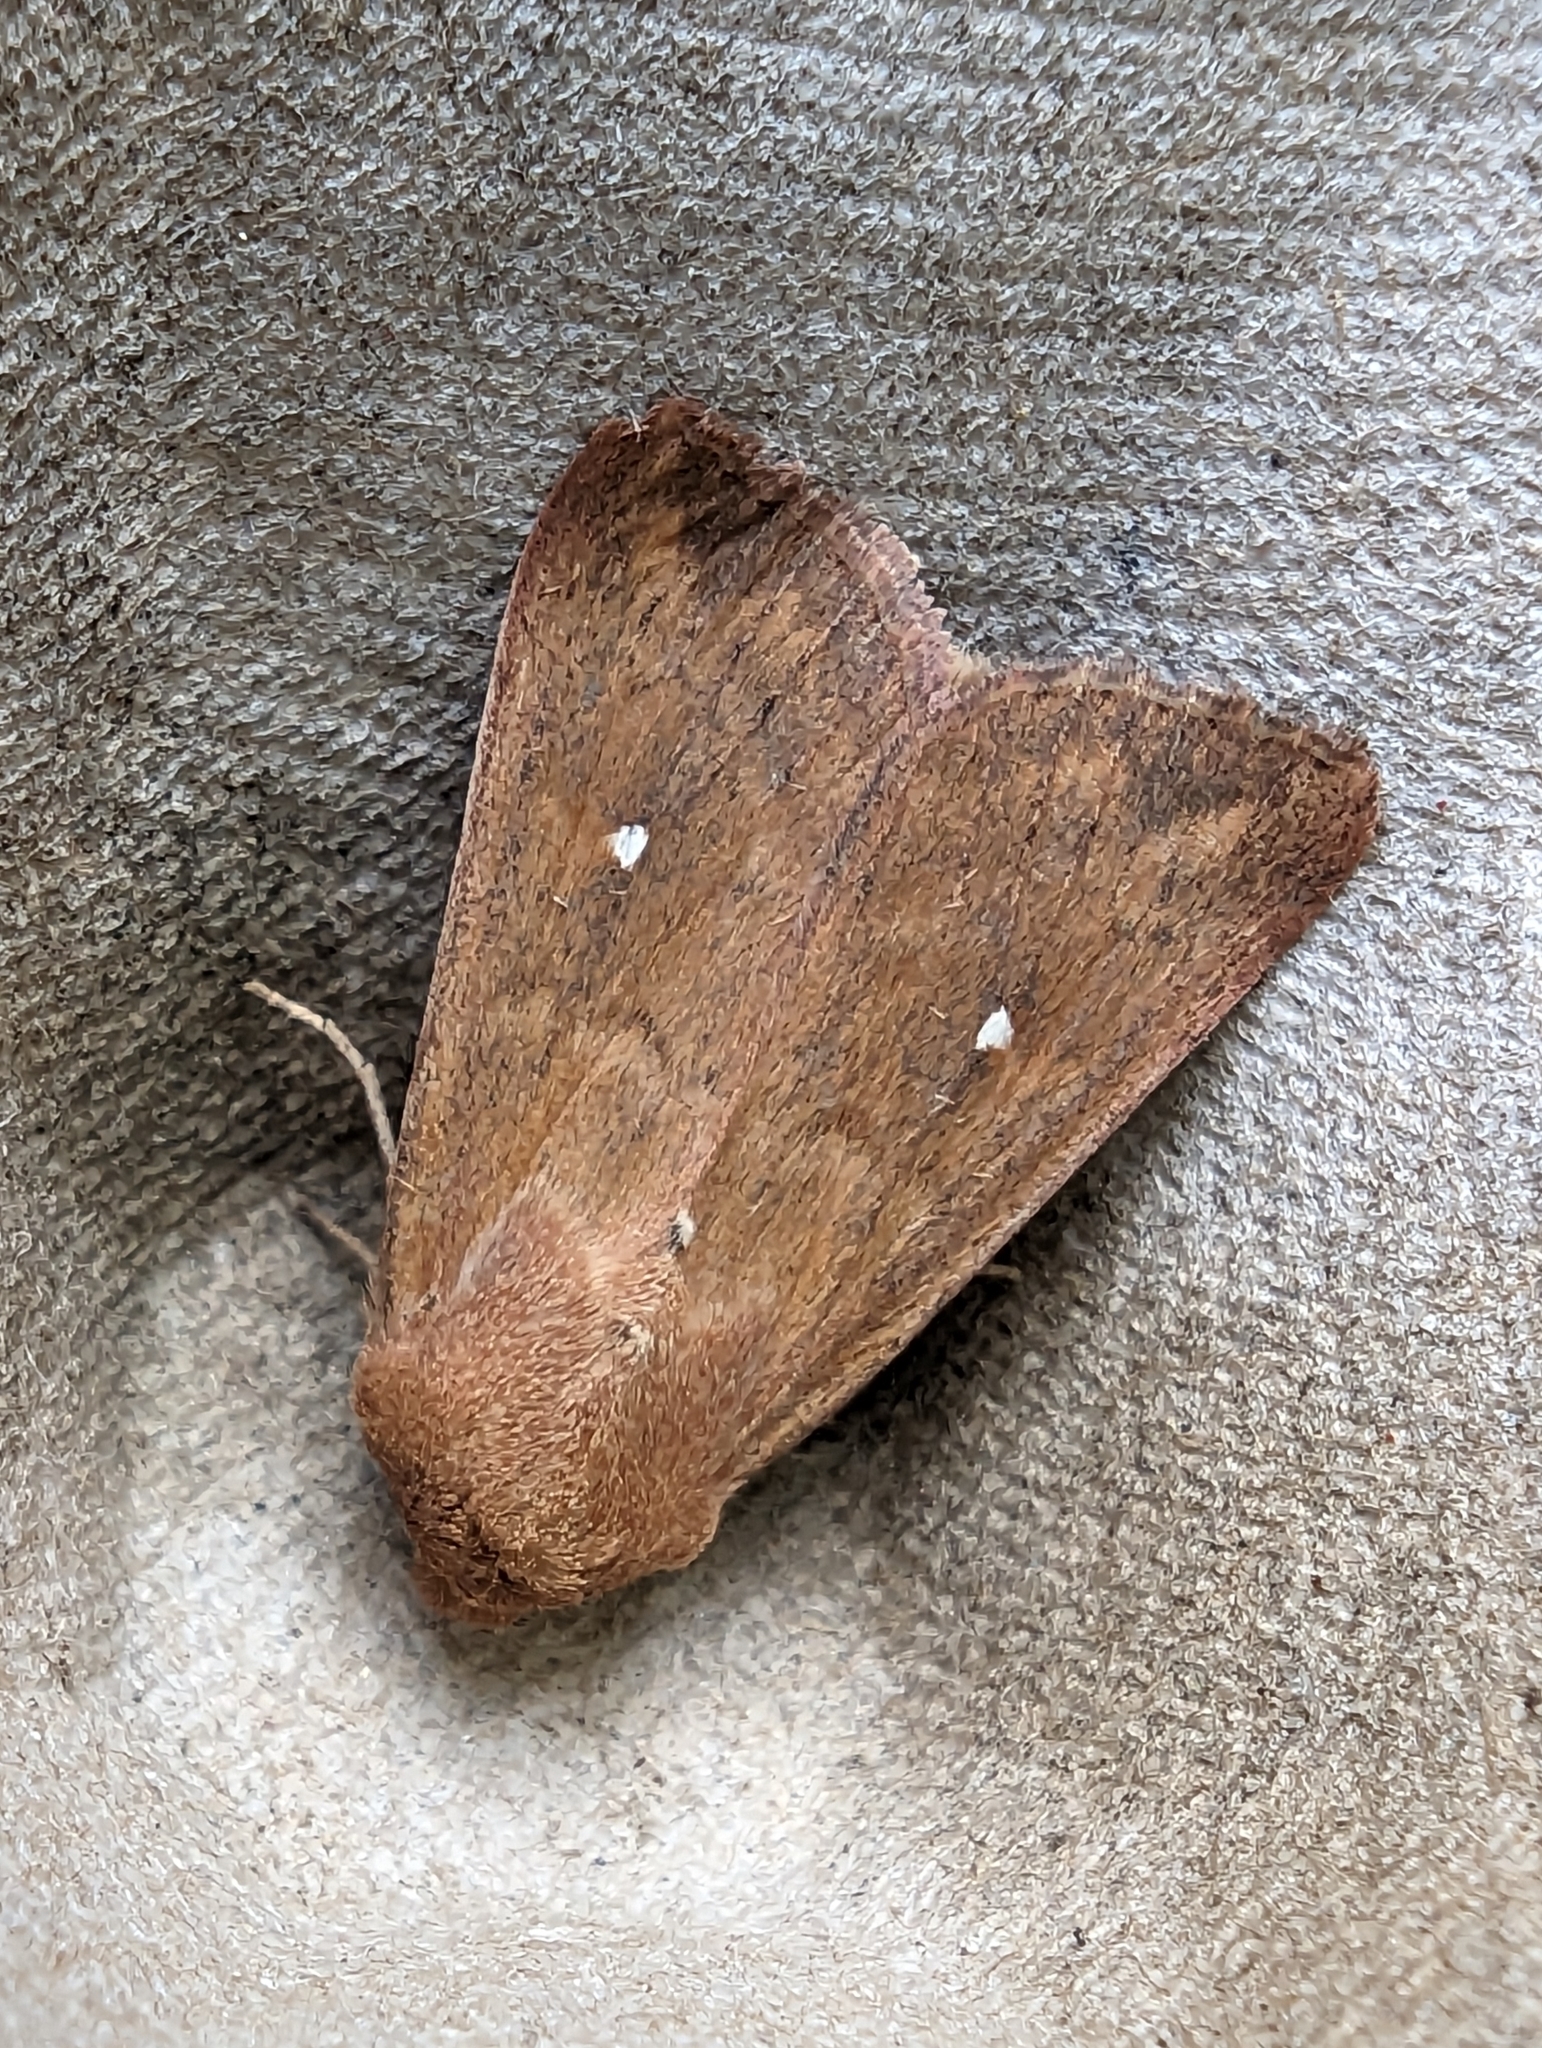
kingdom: Animalia
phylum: Arthropoda
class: Insecta
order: Lepidoptera
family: Noctuidae
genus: Mythimna
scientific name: Mythimna albipuncta
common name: White-point
